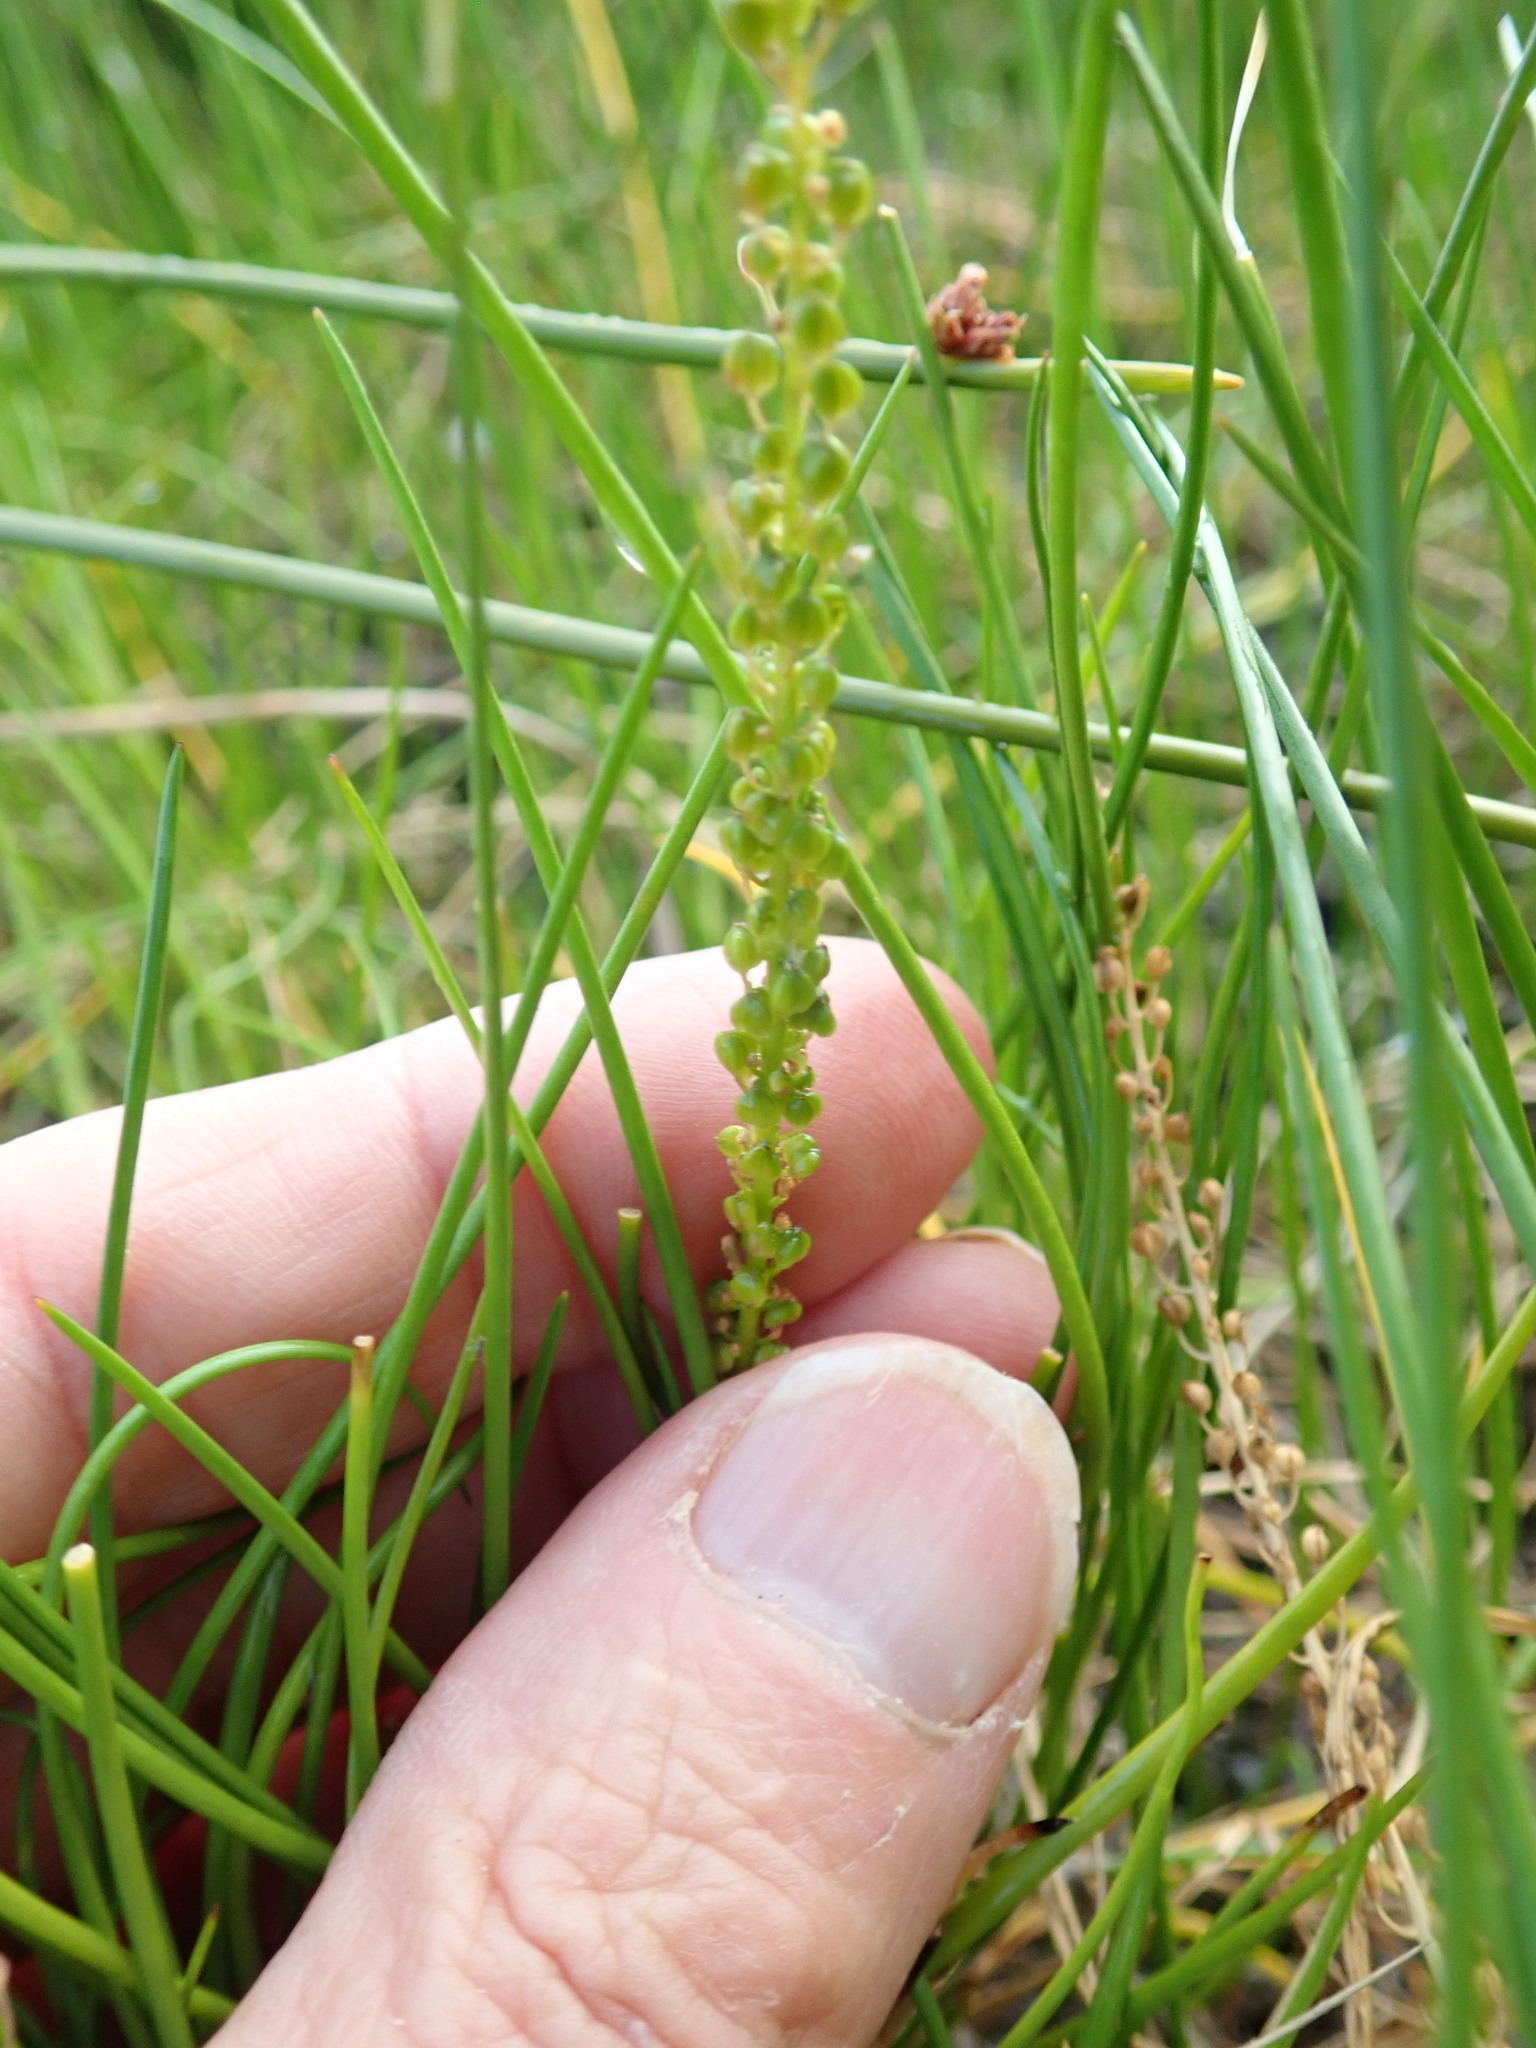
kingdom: Plantae
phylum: Tracheophyta
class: Liliopsida
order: Alismatales
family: Juncaginaceae
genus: Triglochin
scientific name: Triglochin striata
